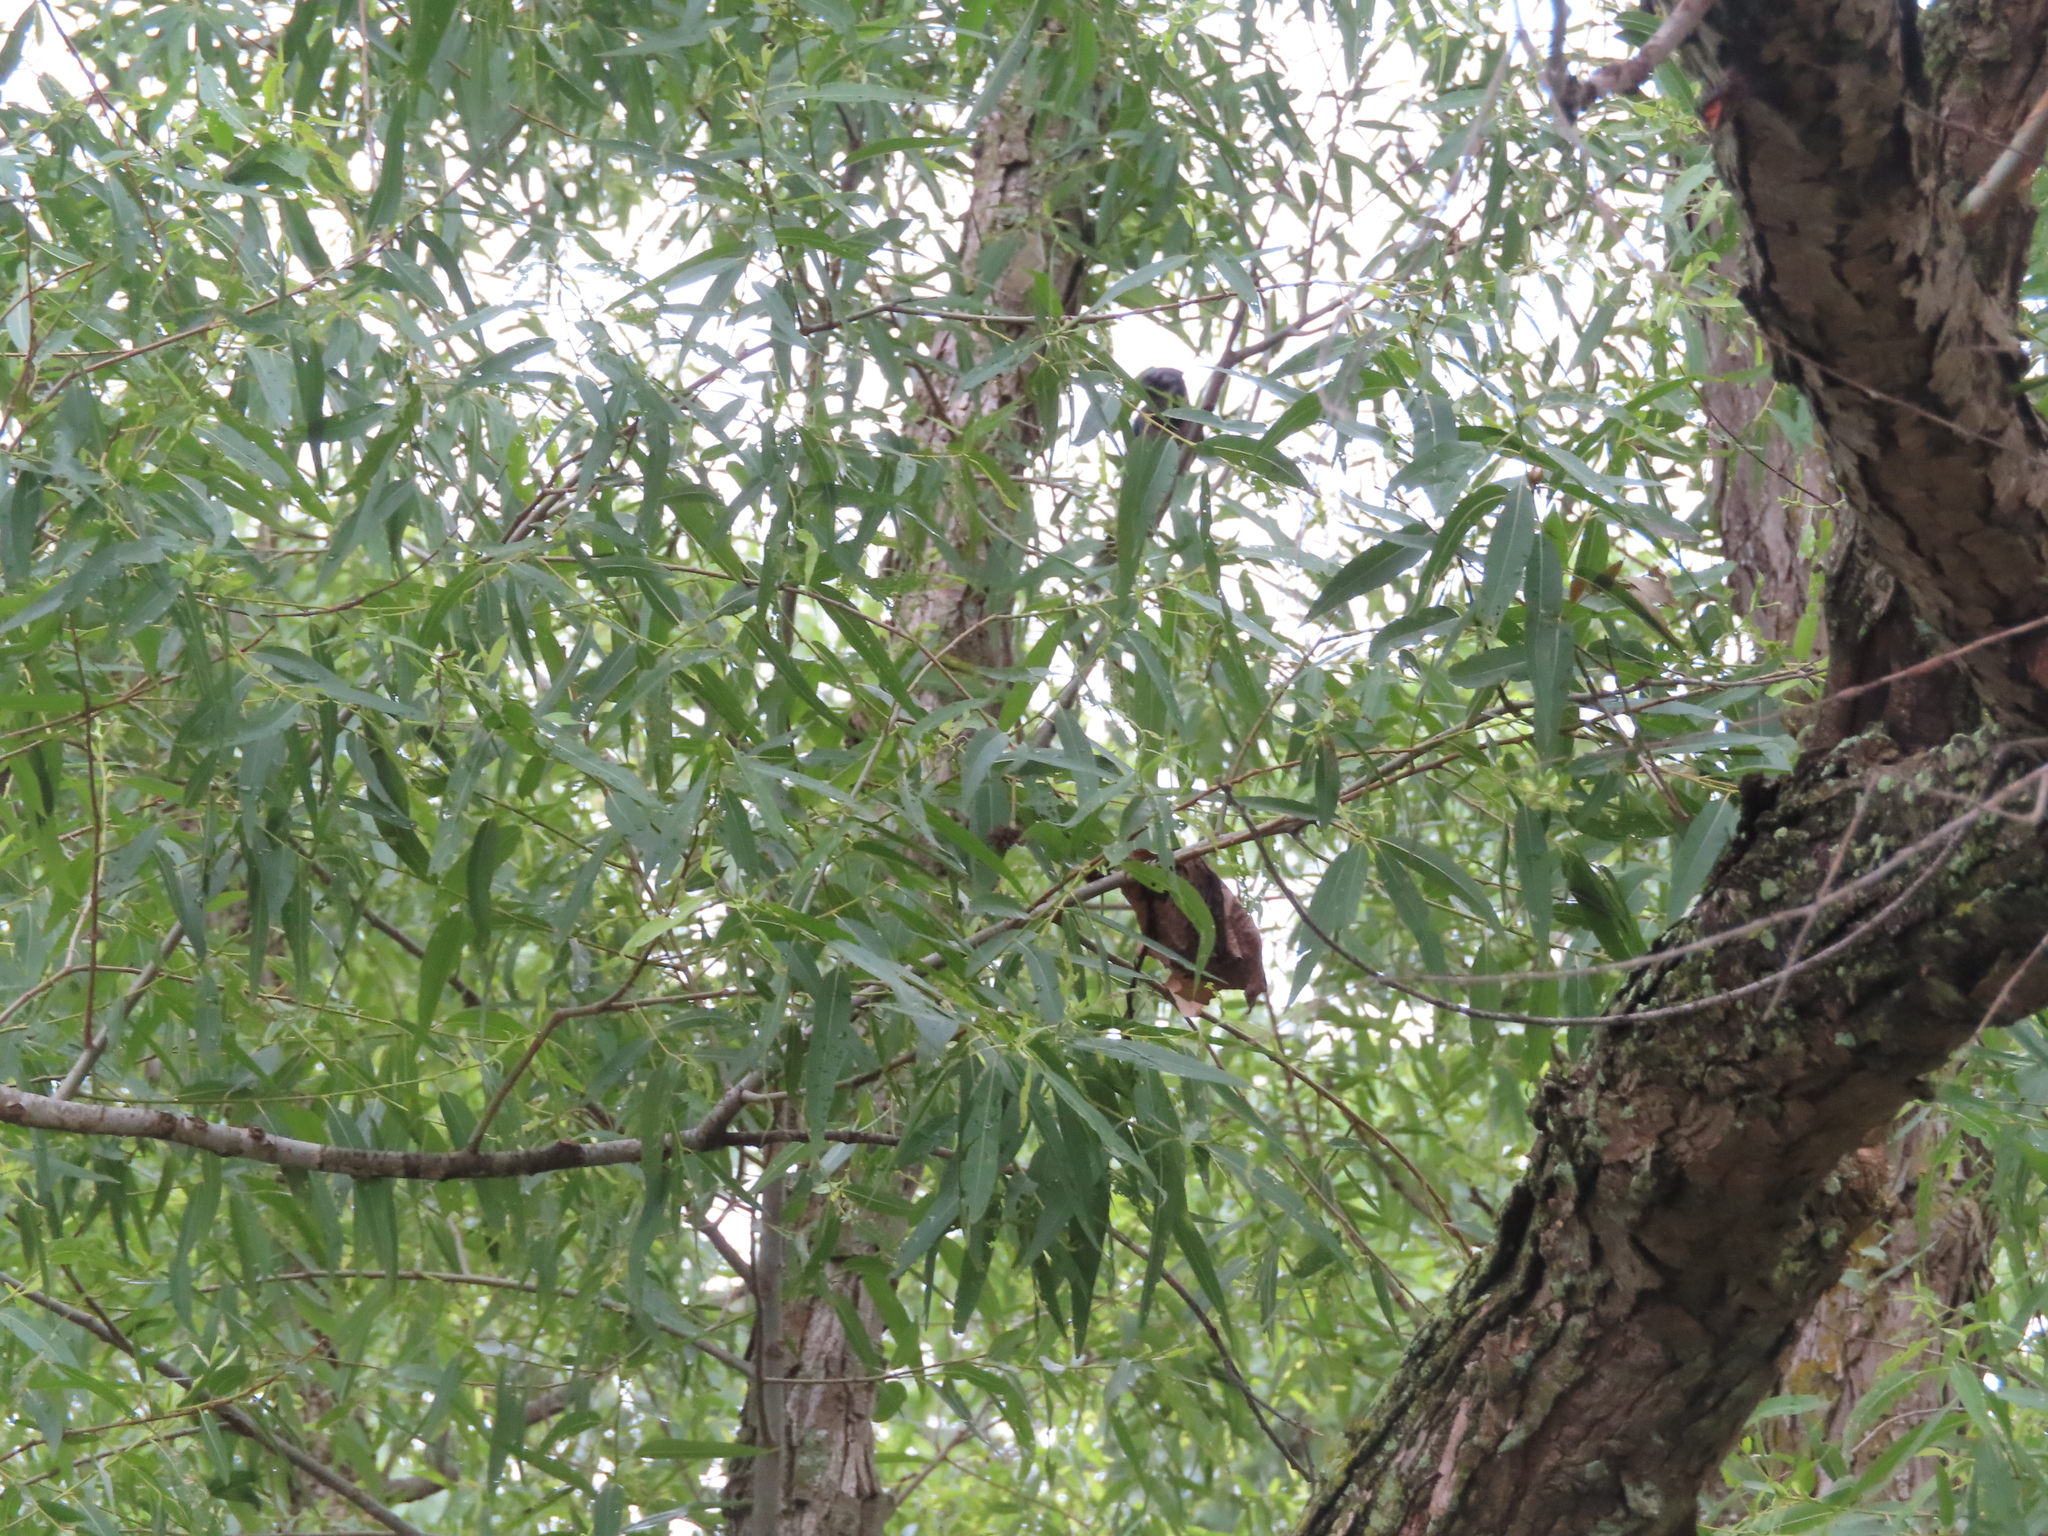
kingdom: Plantae
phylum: Tracheophyta
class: Magnoliopsida
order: Malpighiales
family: Salicaceae
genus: Salix
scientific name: Salix nigra
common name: Black willow
